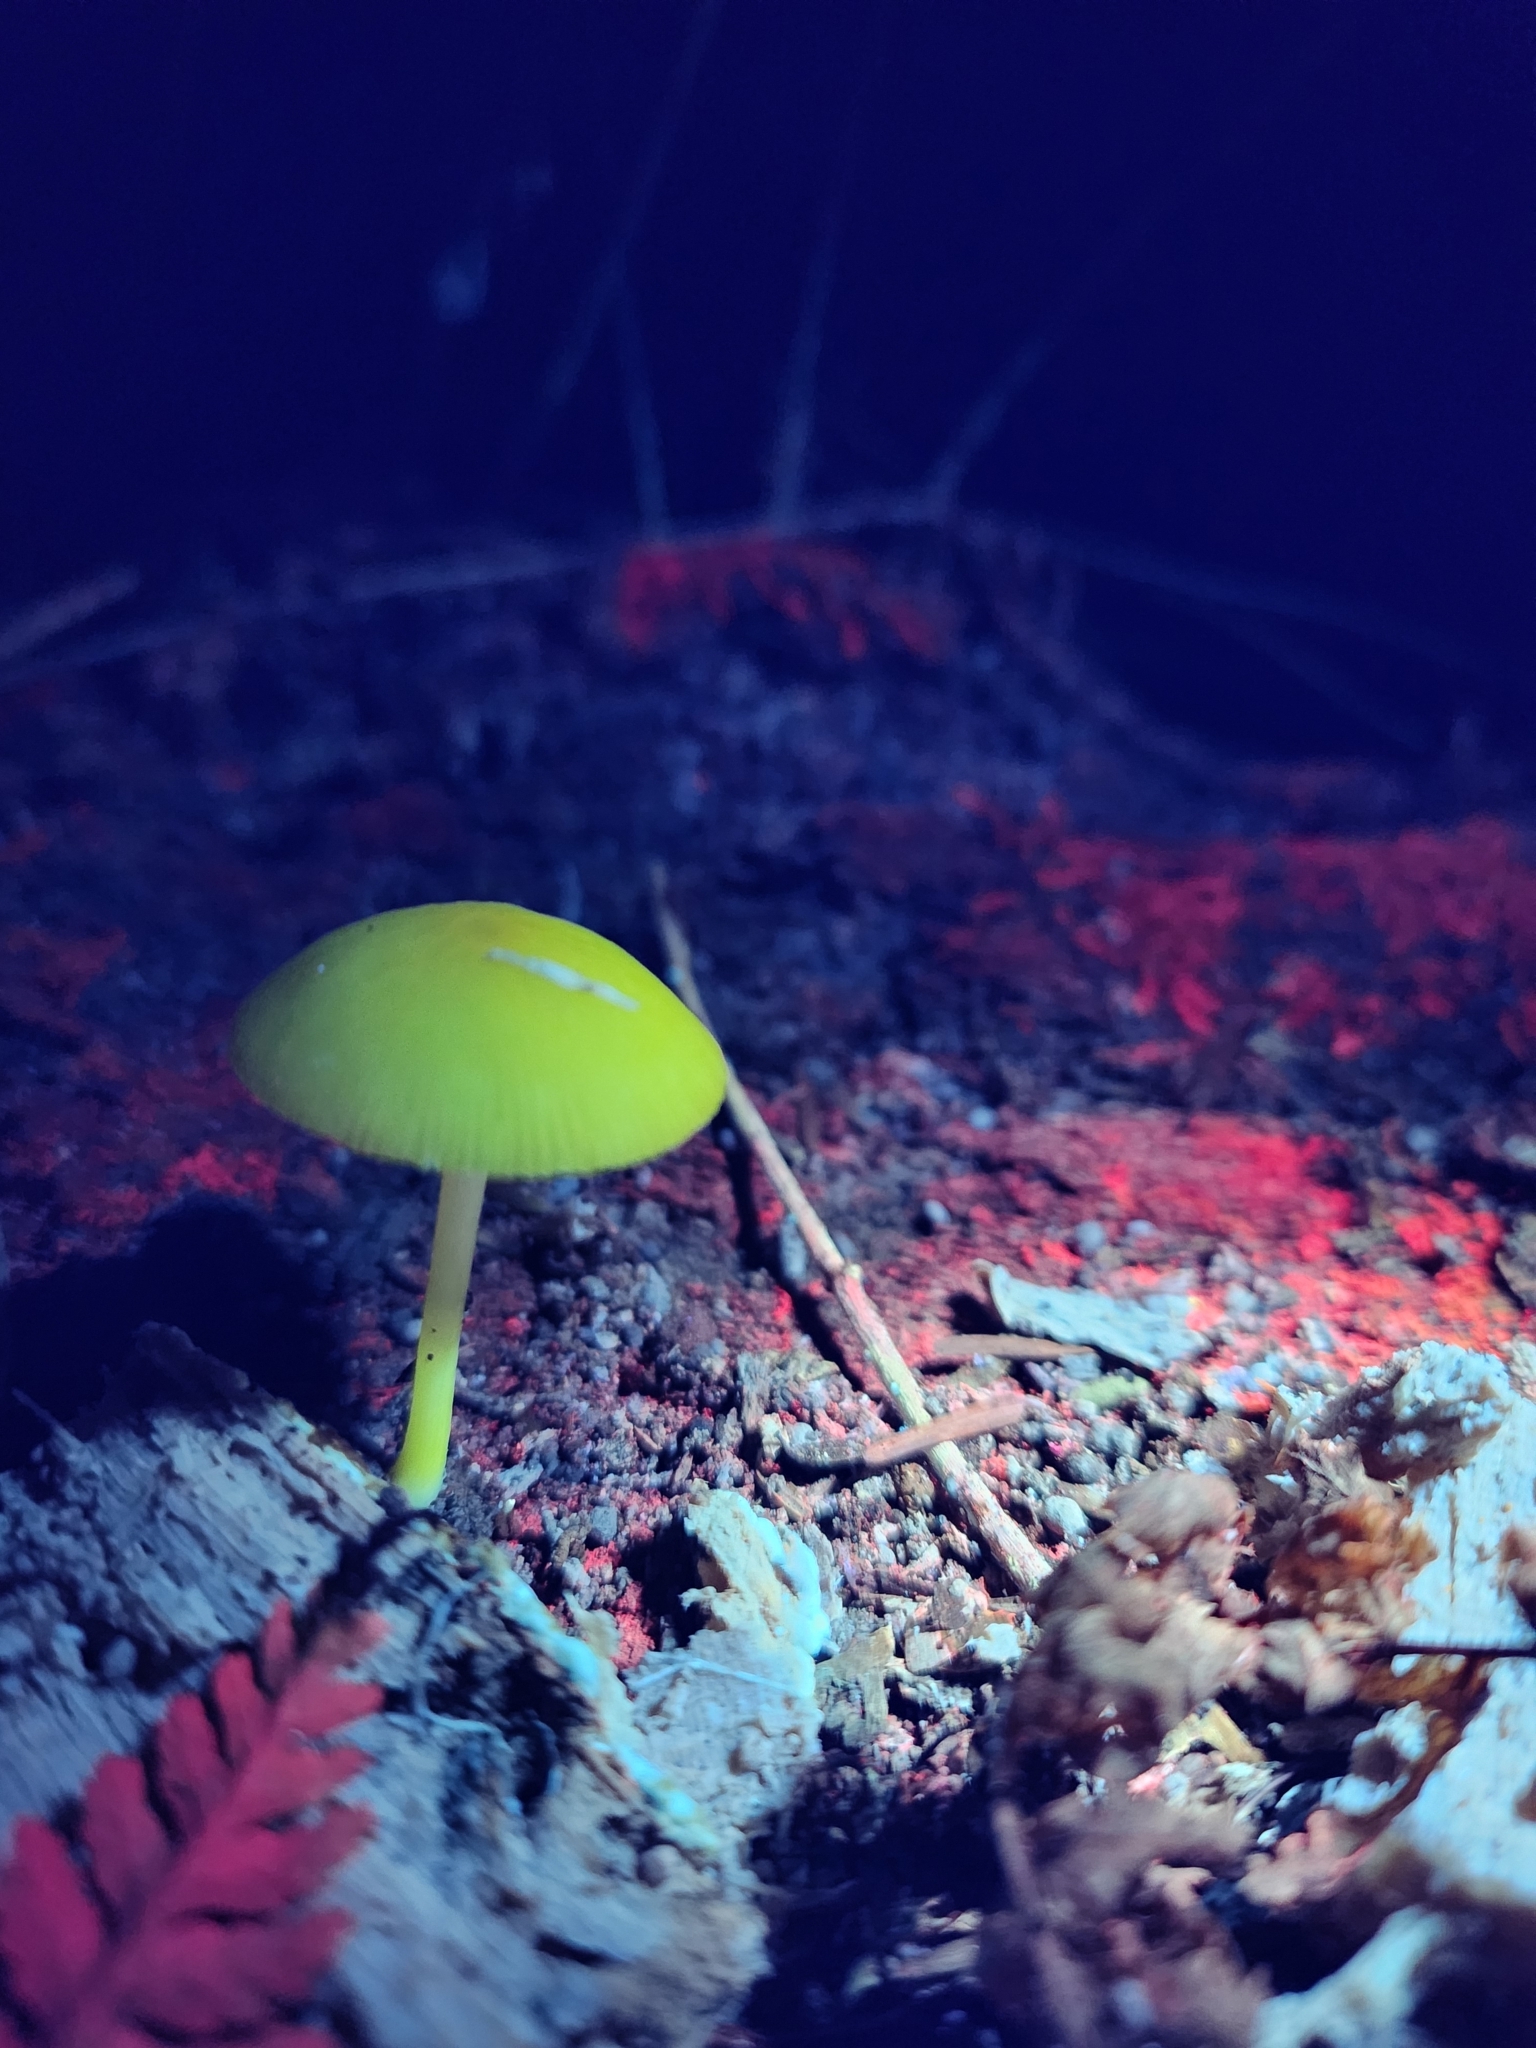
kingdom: Fungi
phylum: Basidiomycota
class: Agaricomycetes
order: Agaricales
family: Pluteaceae
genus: Pluteus
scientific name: Pluteus chrysophlebius
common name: Yellow deer mushroom
